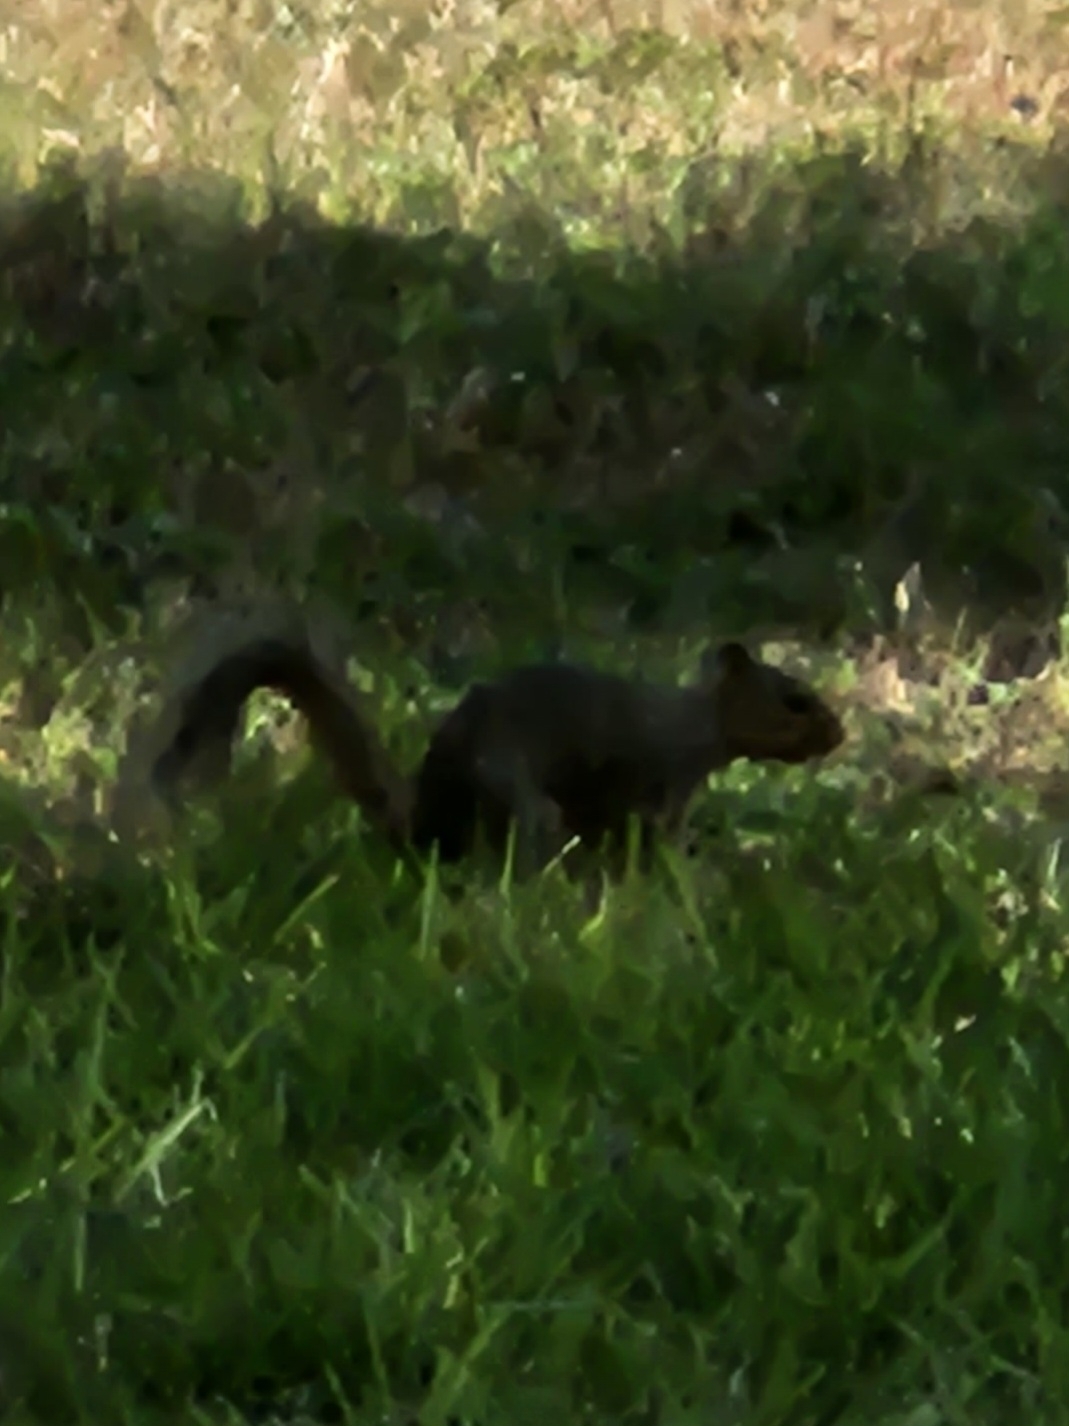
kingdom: Animalia
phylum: Chordata
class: Mammalia
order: Rodentia
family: Sciuridae
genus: Sciurus
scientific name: Sciurus niger
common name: Fox squirrel
